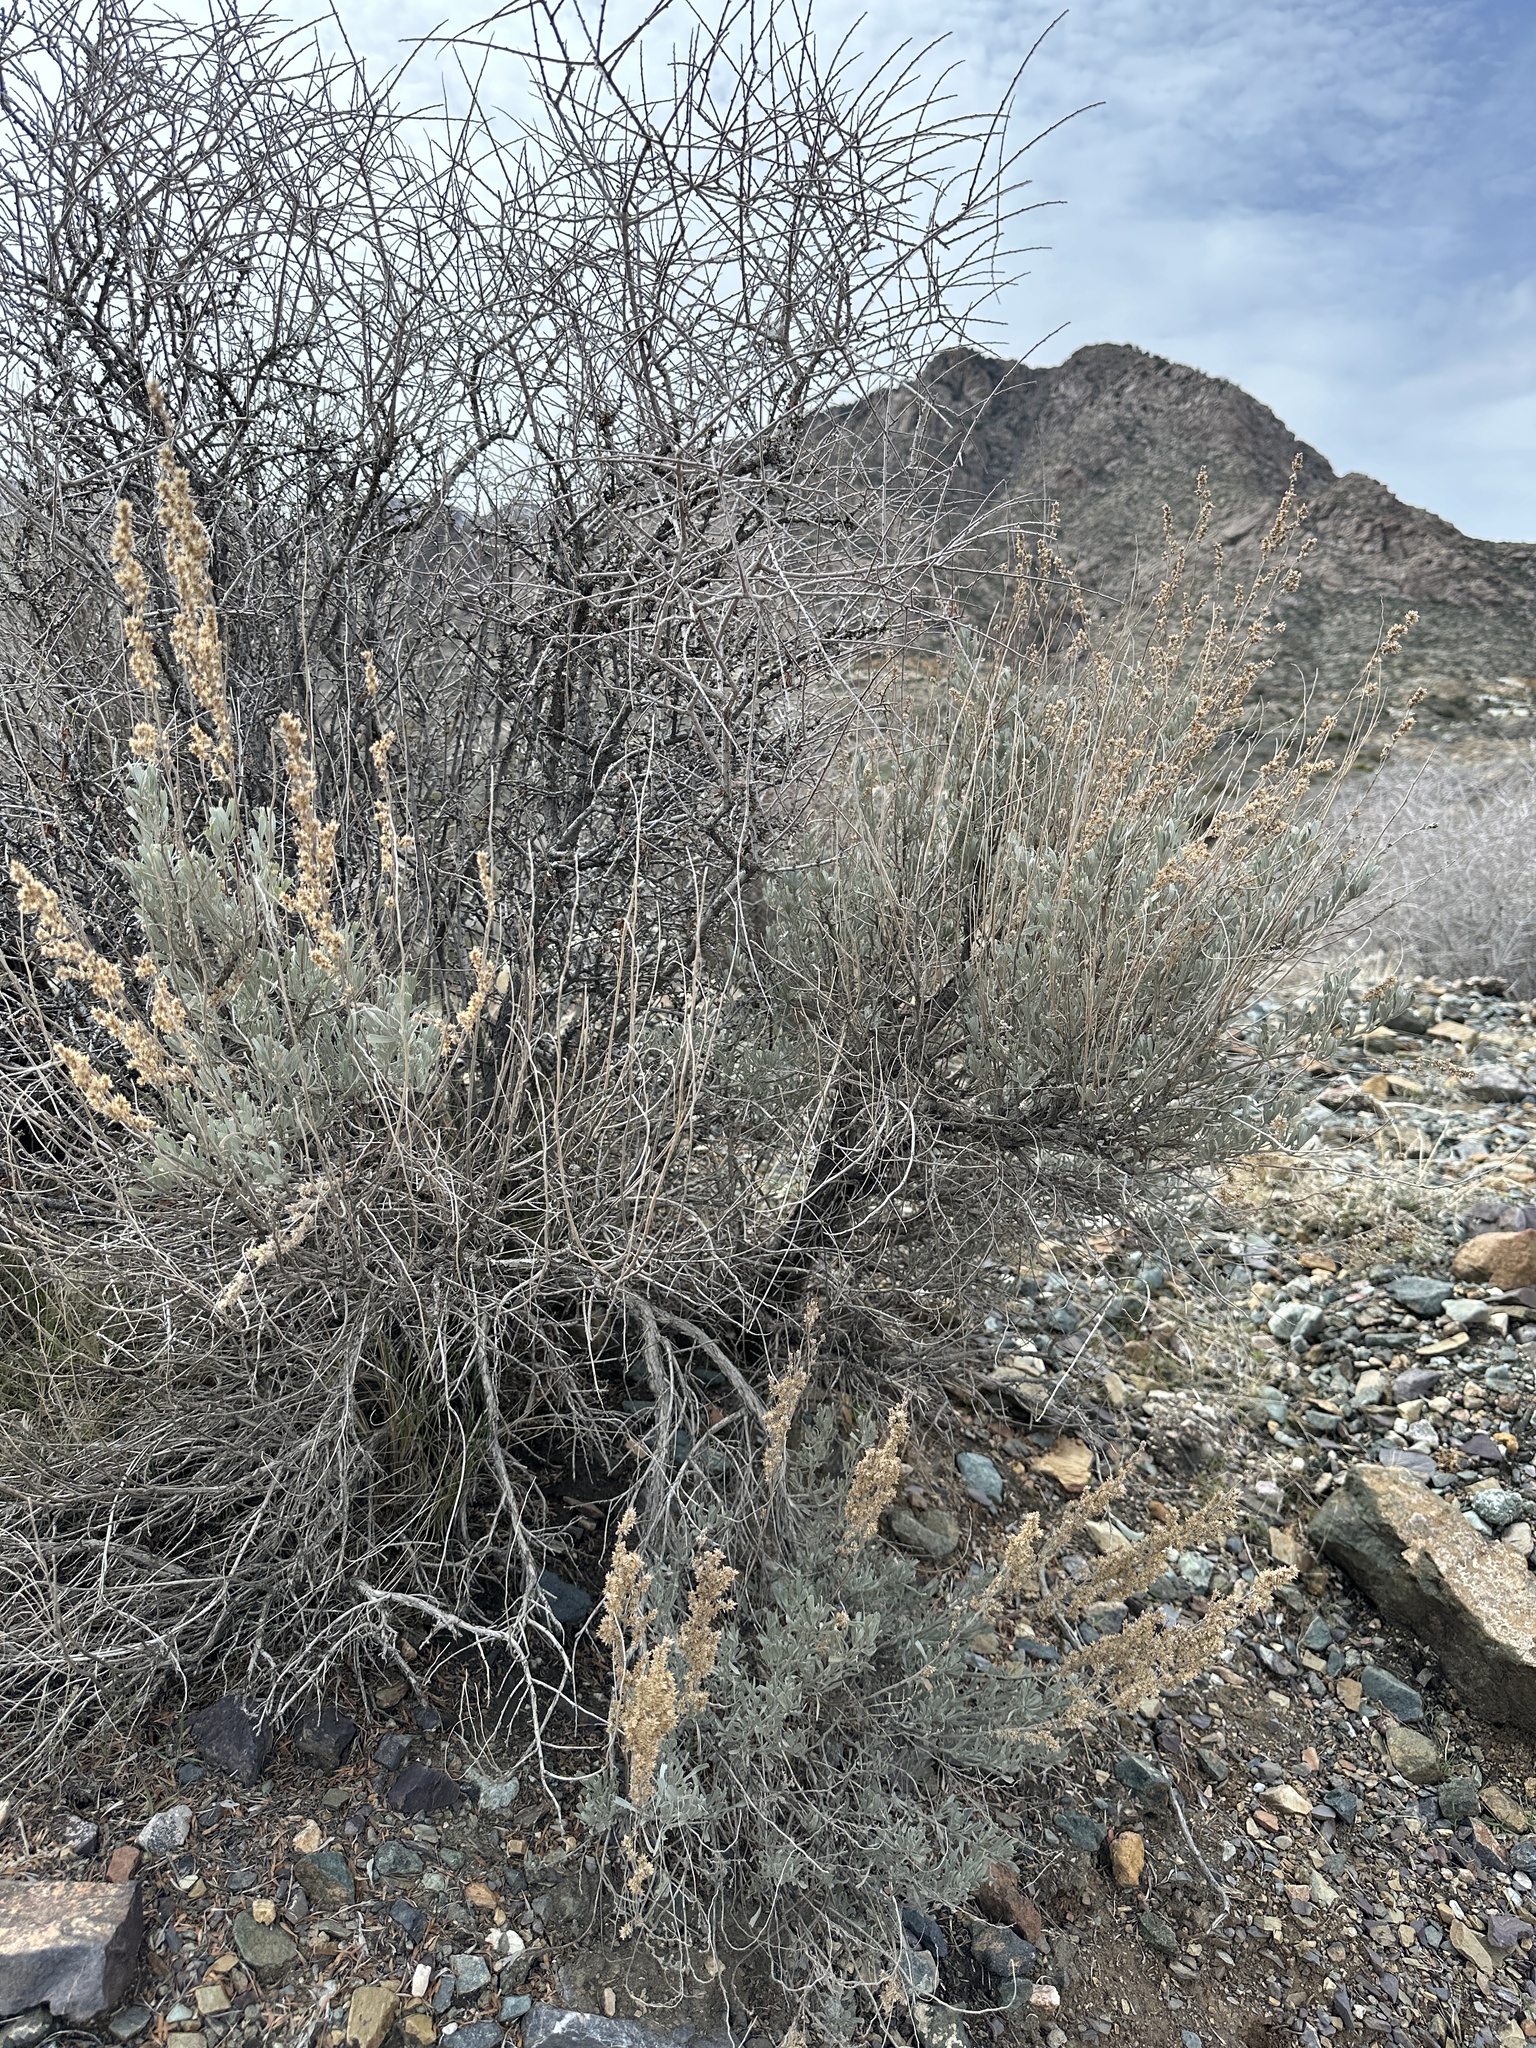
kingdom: Plantae
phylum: Tracheophyta
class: Magnoliopsida
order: Asterales
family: Asteraceae
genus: Artemisia
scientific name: Artemisia tridentata
